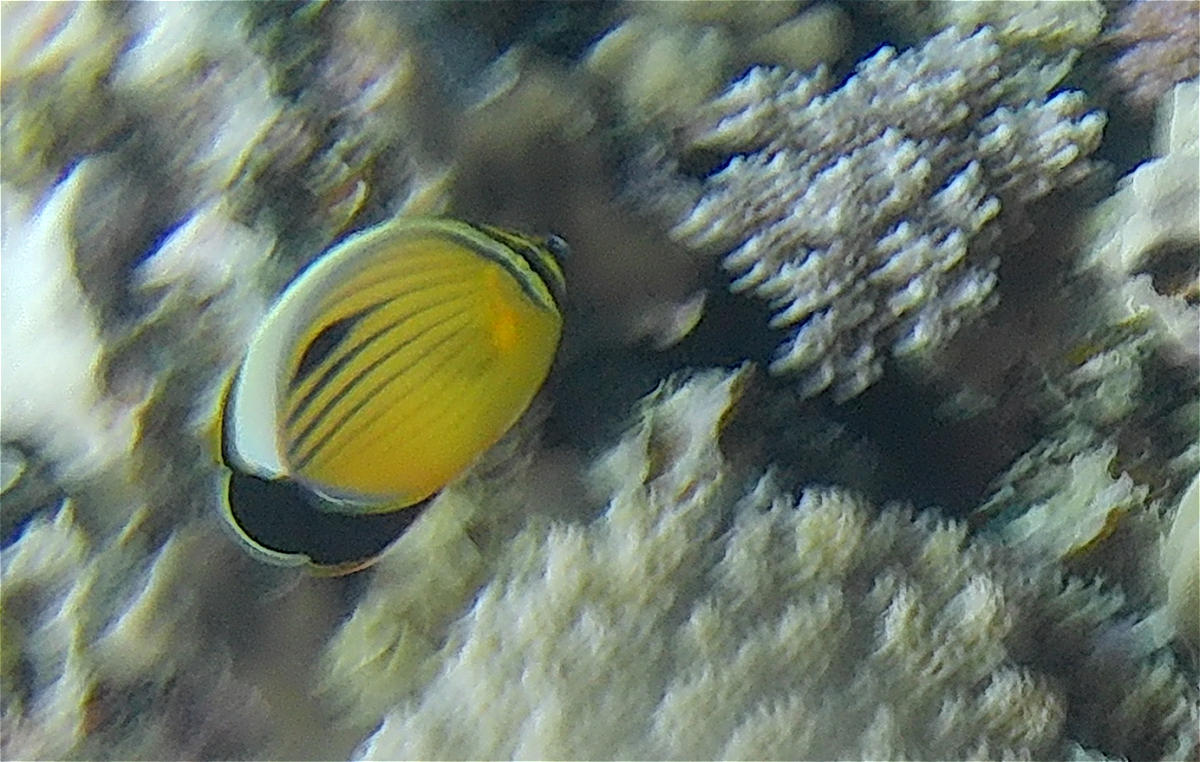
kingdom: Animalia
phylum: Chordata
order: Perciformes
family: Chaetodontidae
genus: Chaetodon
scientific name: Chaetodon austriacus
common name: Exquisite butterflyfish
